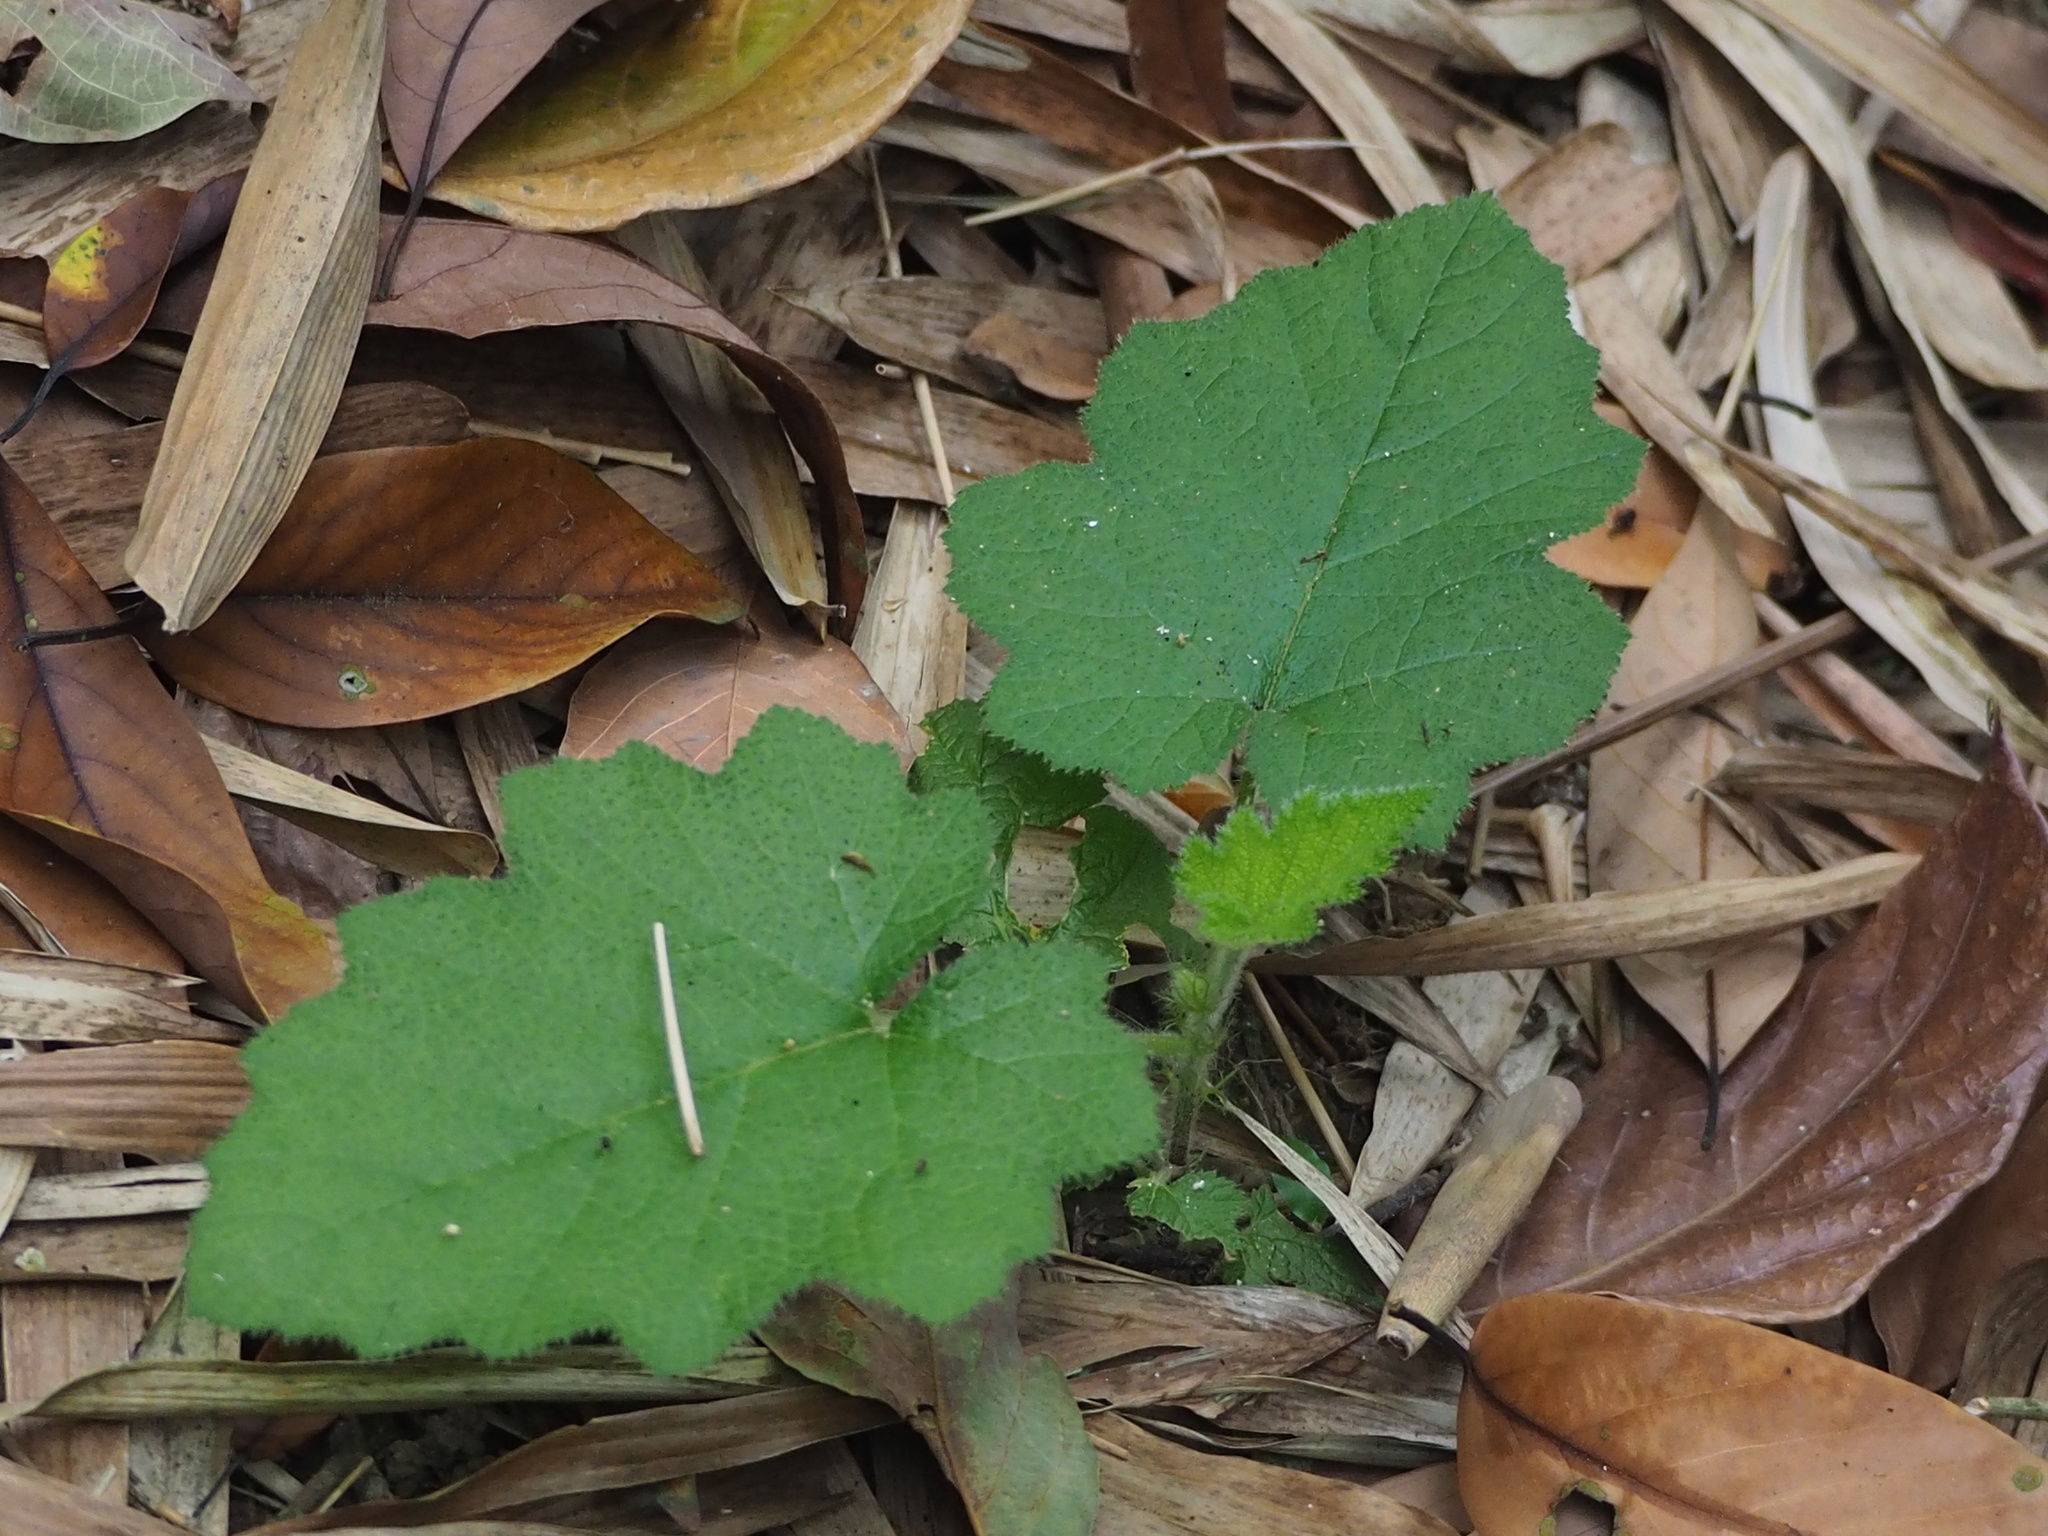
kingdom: Plantae
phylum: Tracheophyta
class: Magnoliopsida
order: Rosales
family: Rosaceae
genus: Rubus
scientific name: Rubus lambertianus
